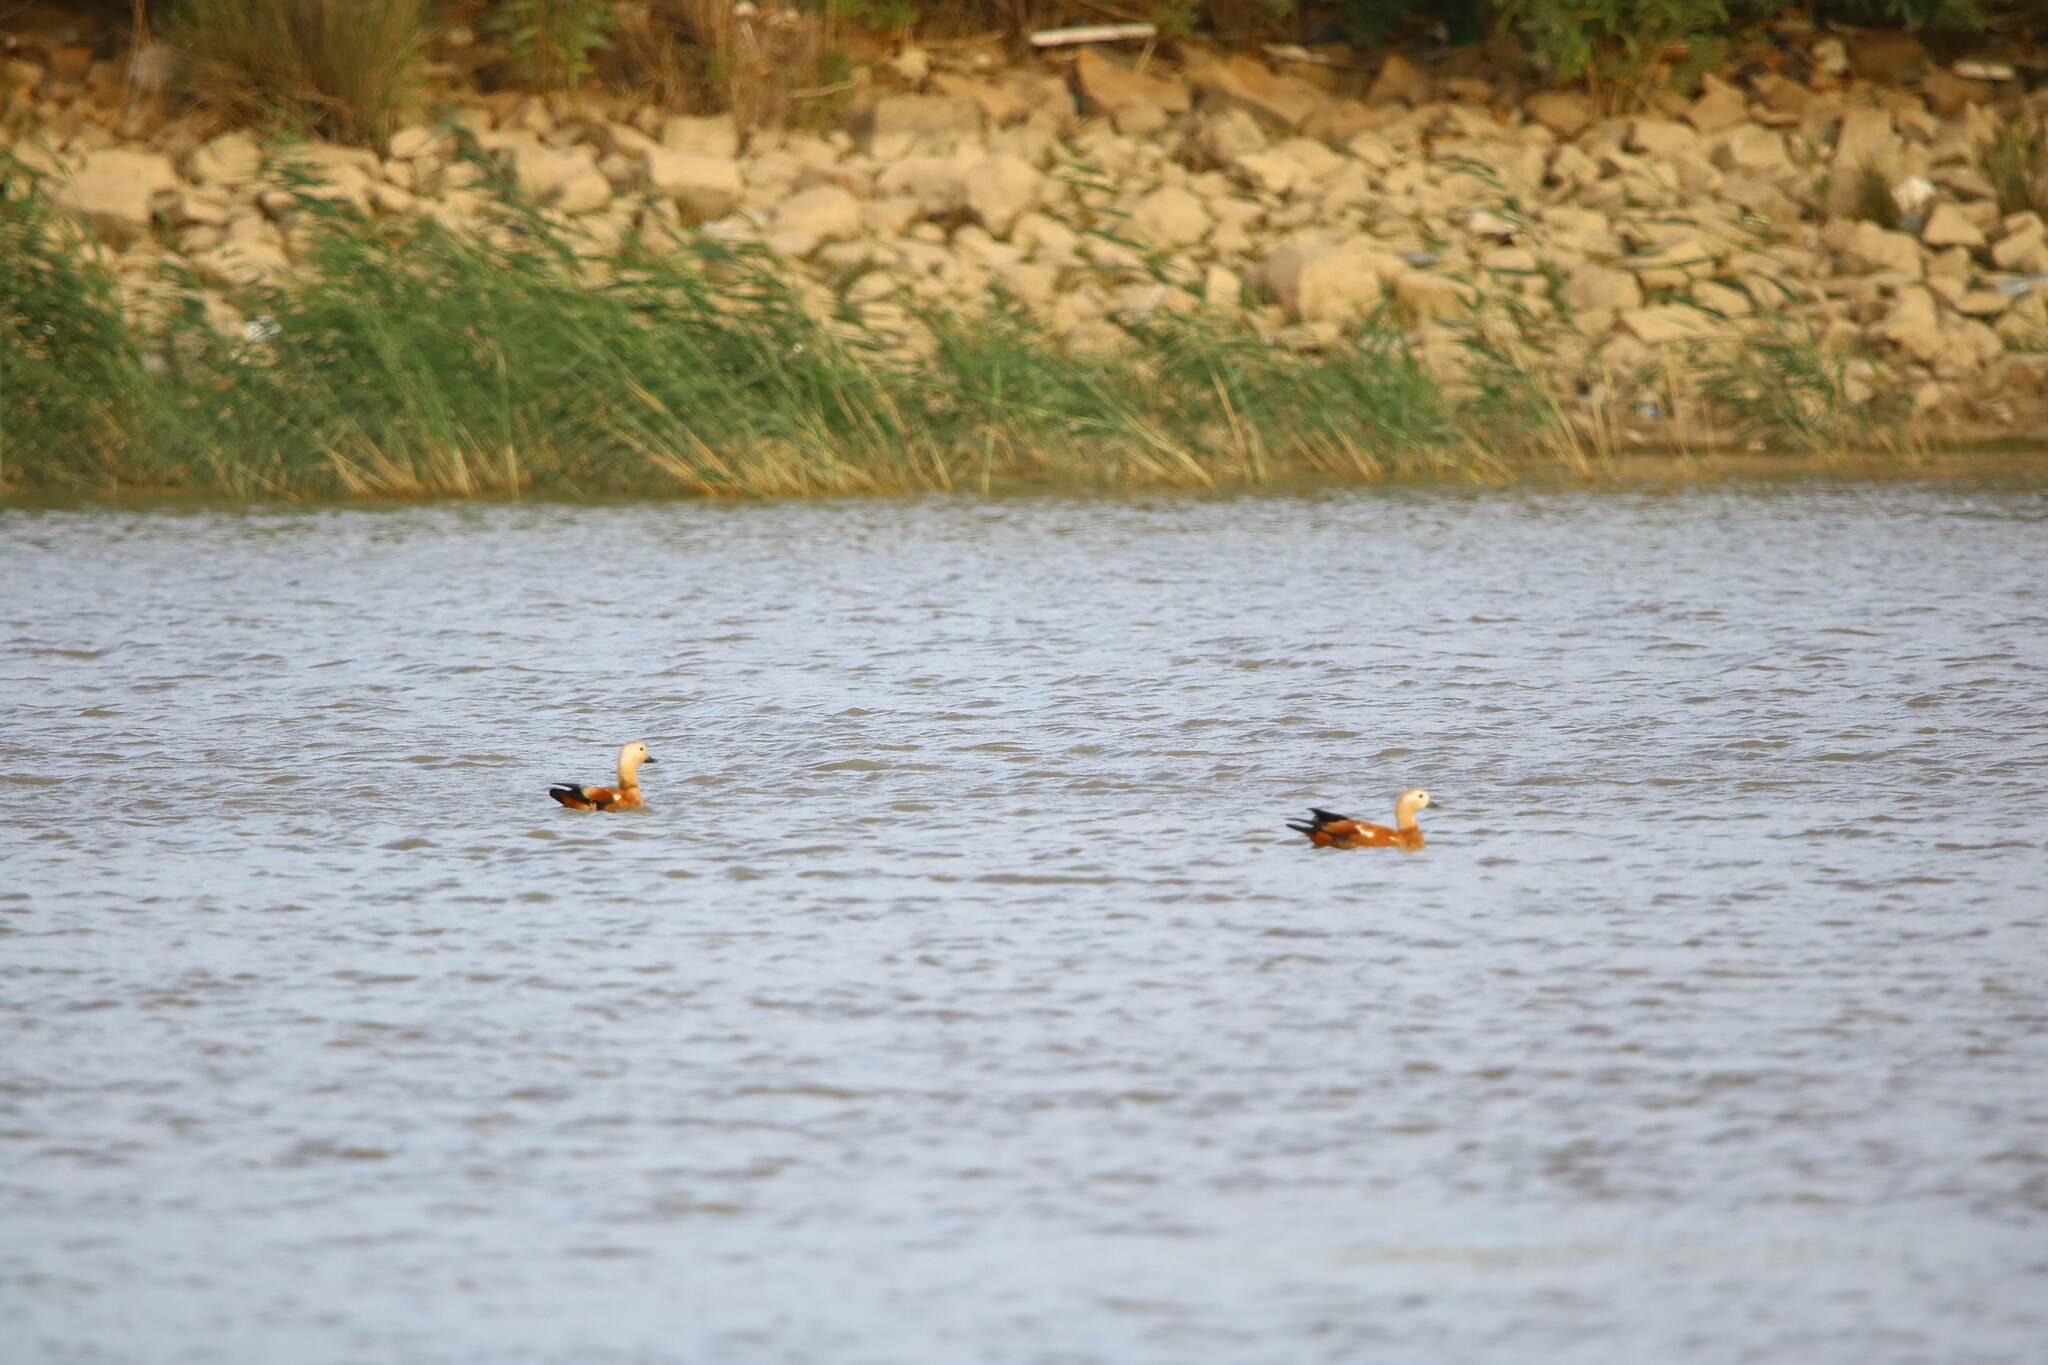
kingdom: Animalia
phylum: Chordata
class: Aves
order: Anseriformes
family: Anatidae
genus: Tadorna
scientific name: Tadorna ferruginea
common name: Ruddy shelduck
